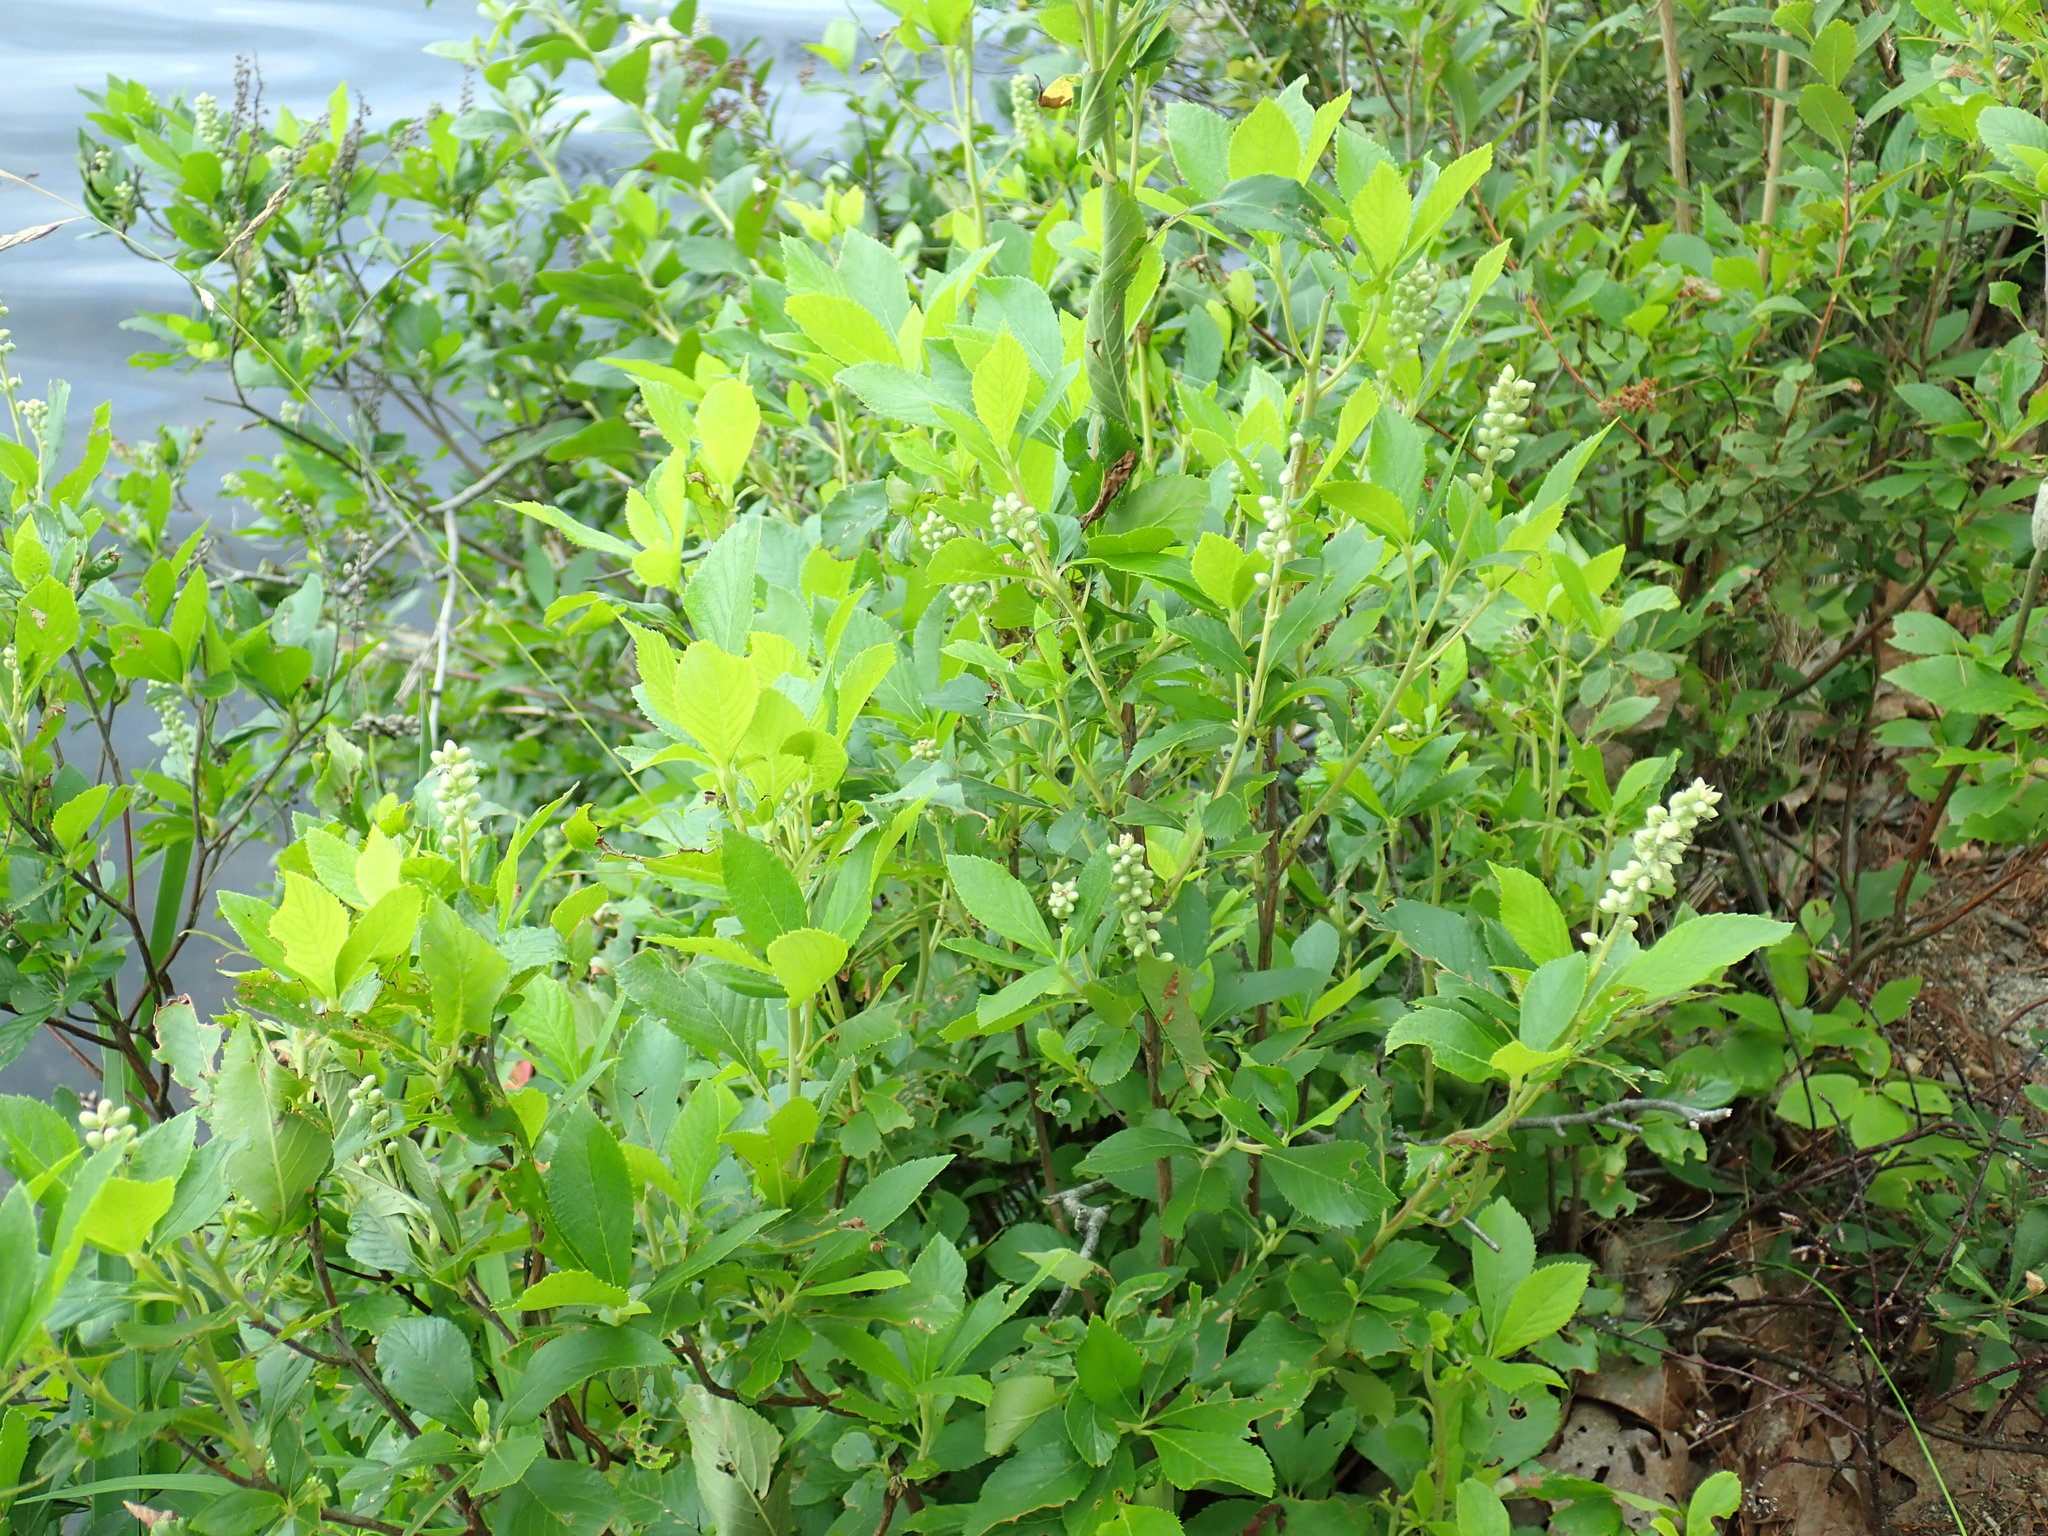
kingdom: Plantae
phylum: Tracheophyta
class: Magnoliopsida
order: Ericales
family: Clethraceae
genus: Clethra
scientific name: Clethra alnifolia
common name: Sweet pepperbush
